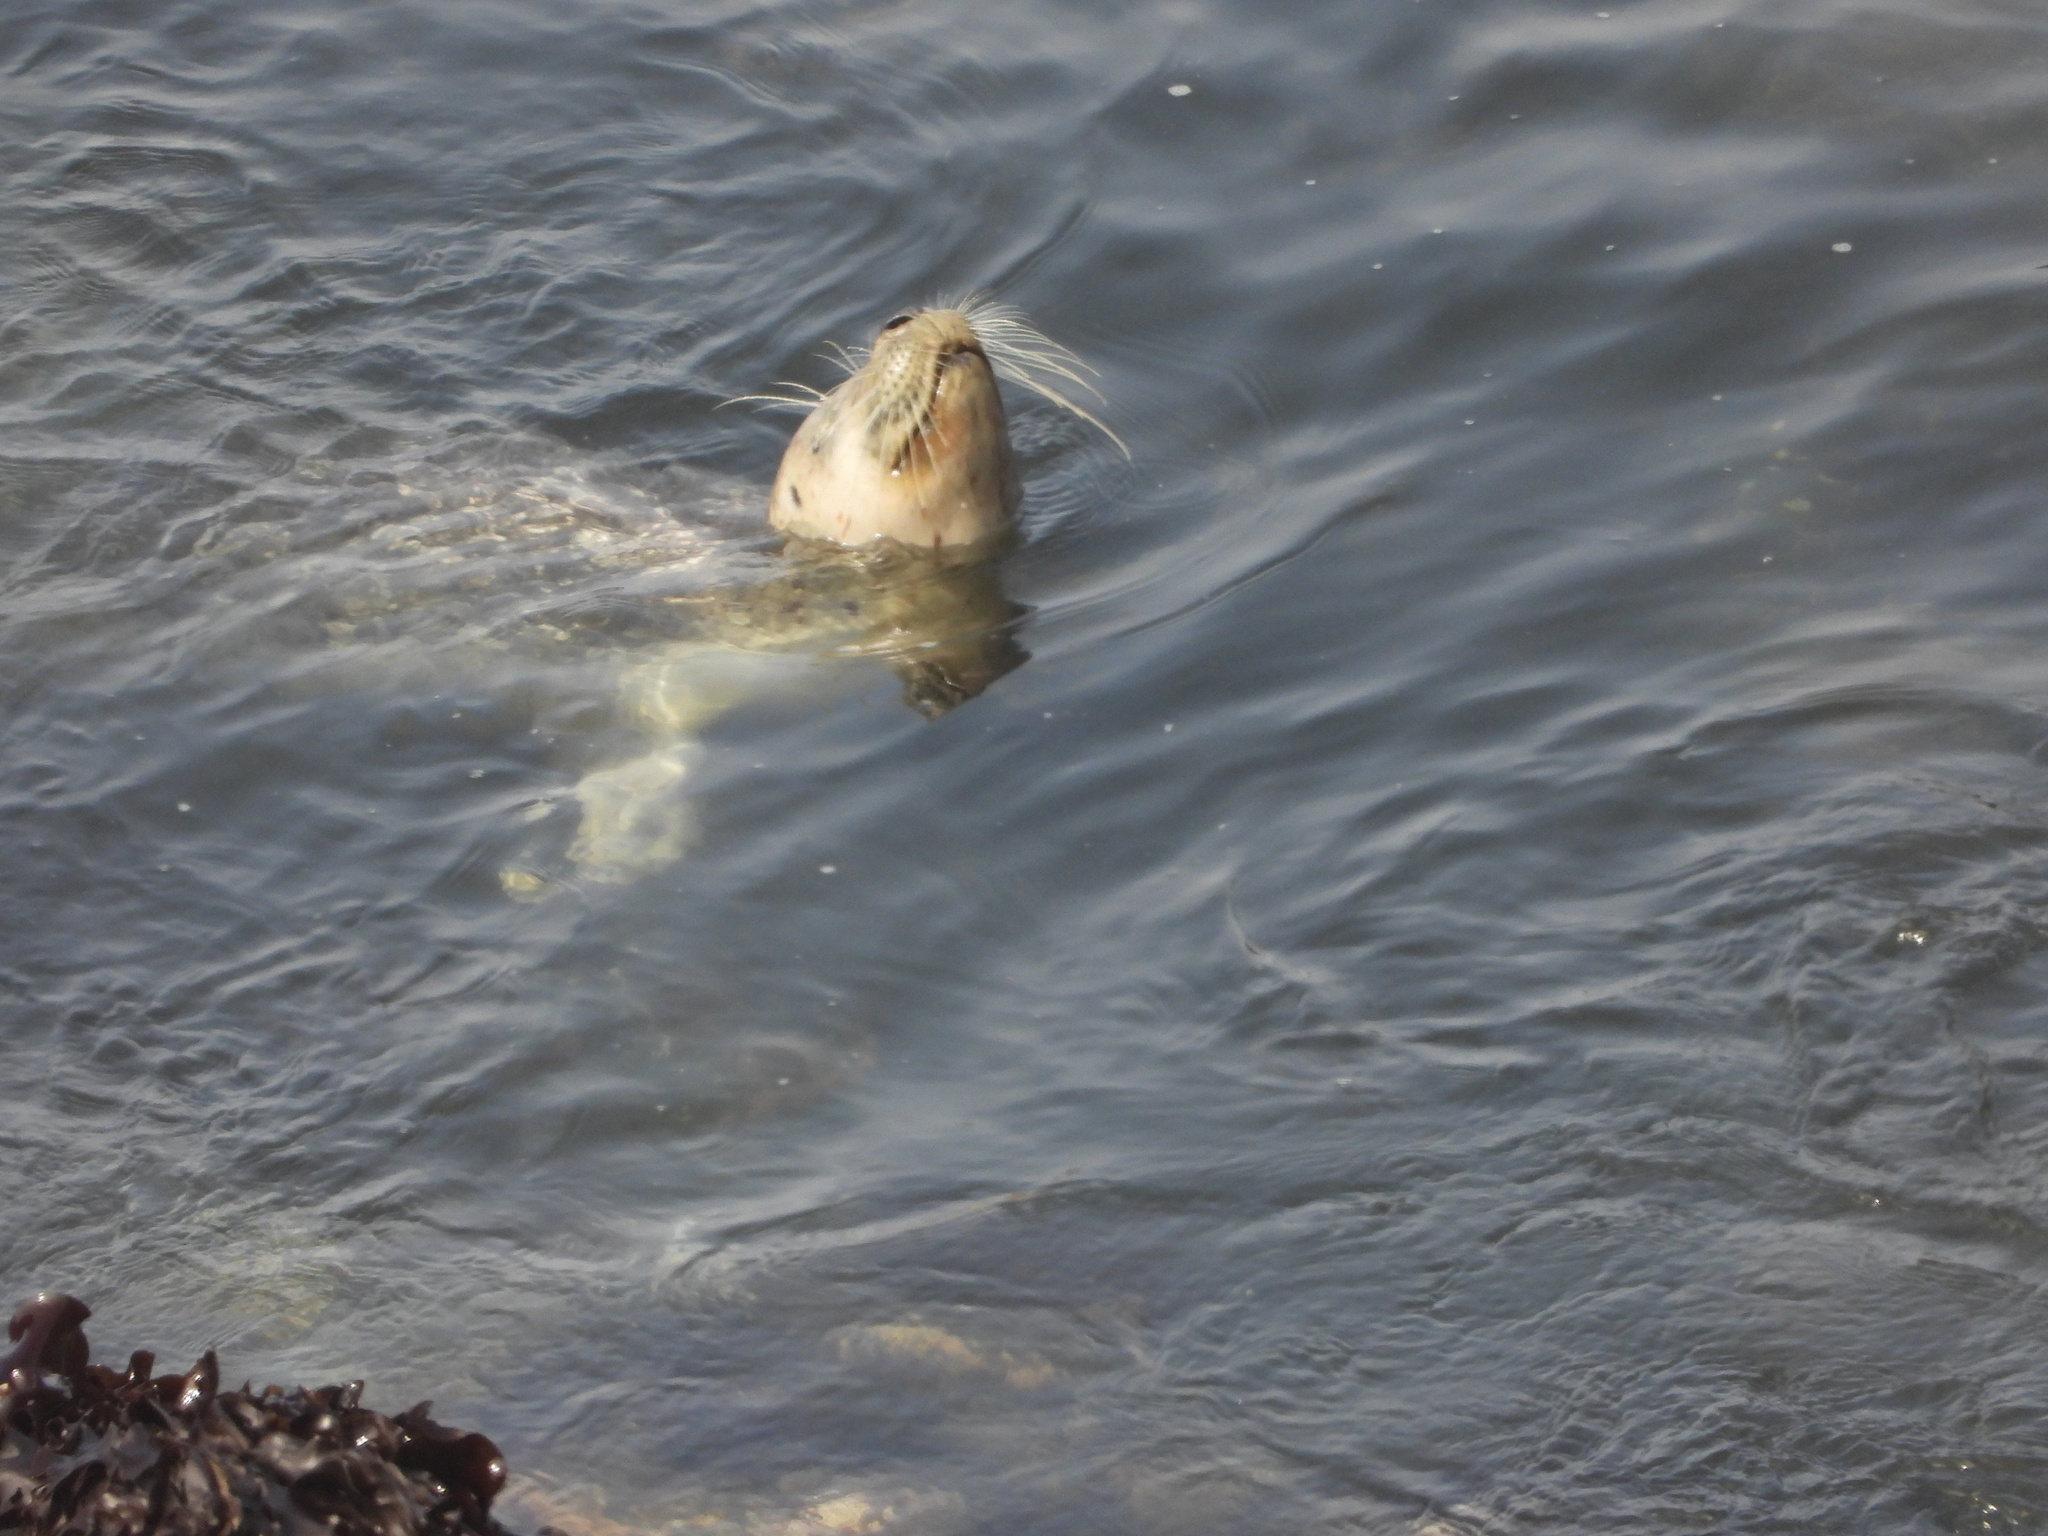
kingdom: Animalia
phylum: Chordata
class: Mammalia
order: Carnivora
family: Phocidae
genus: Phoca
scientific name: Phoca vitulina
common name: Harbor seal
